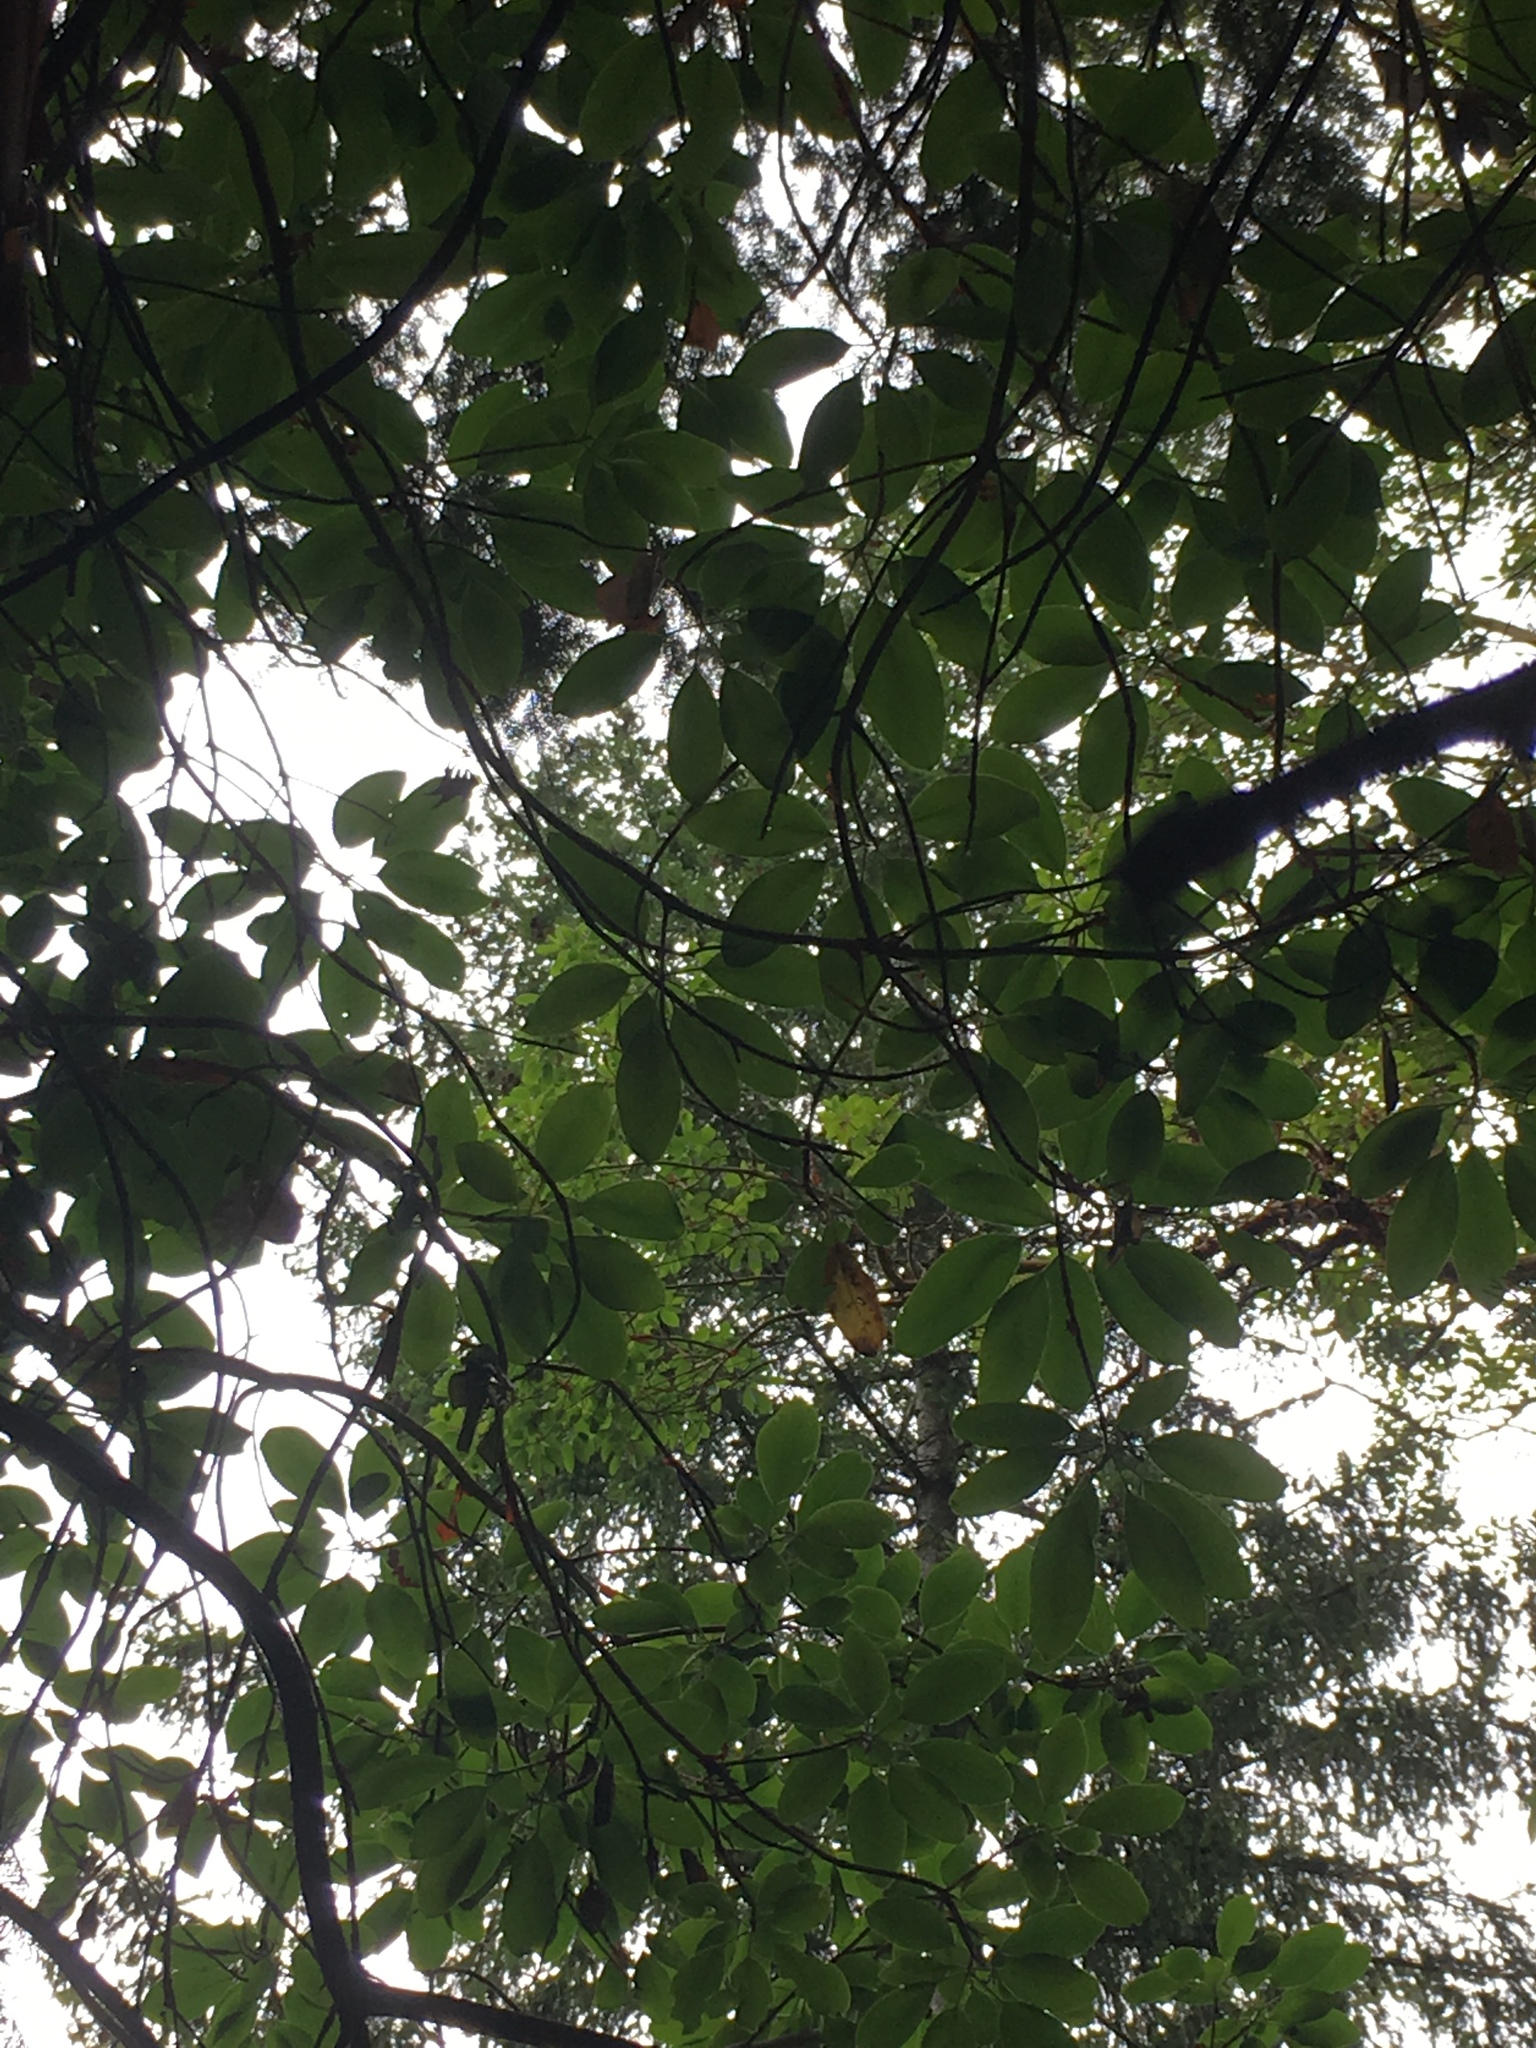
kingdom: Plantae
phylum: Tracheophyta
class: Magnoliopsida
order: Ericales
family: Ericaceae
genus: Arbutus
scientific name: Arbutus menziesii
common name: Pacific madrone
